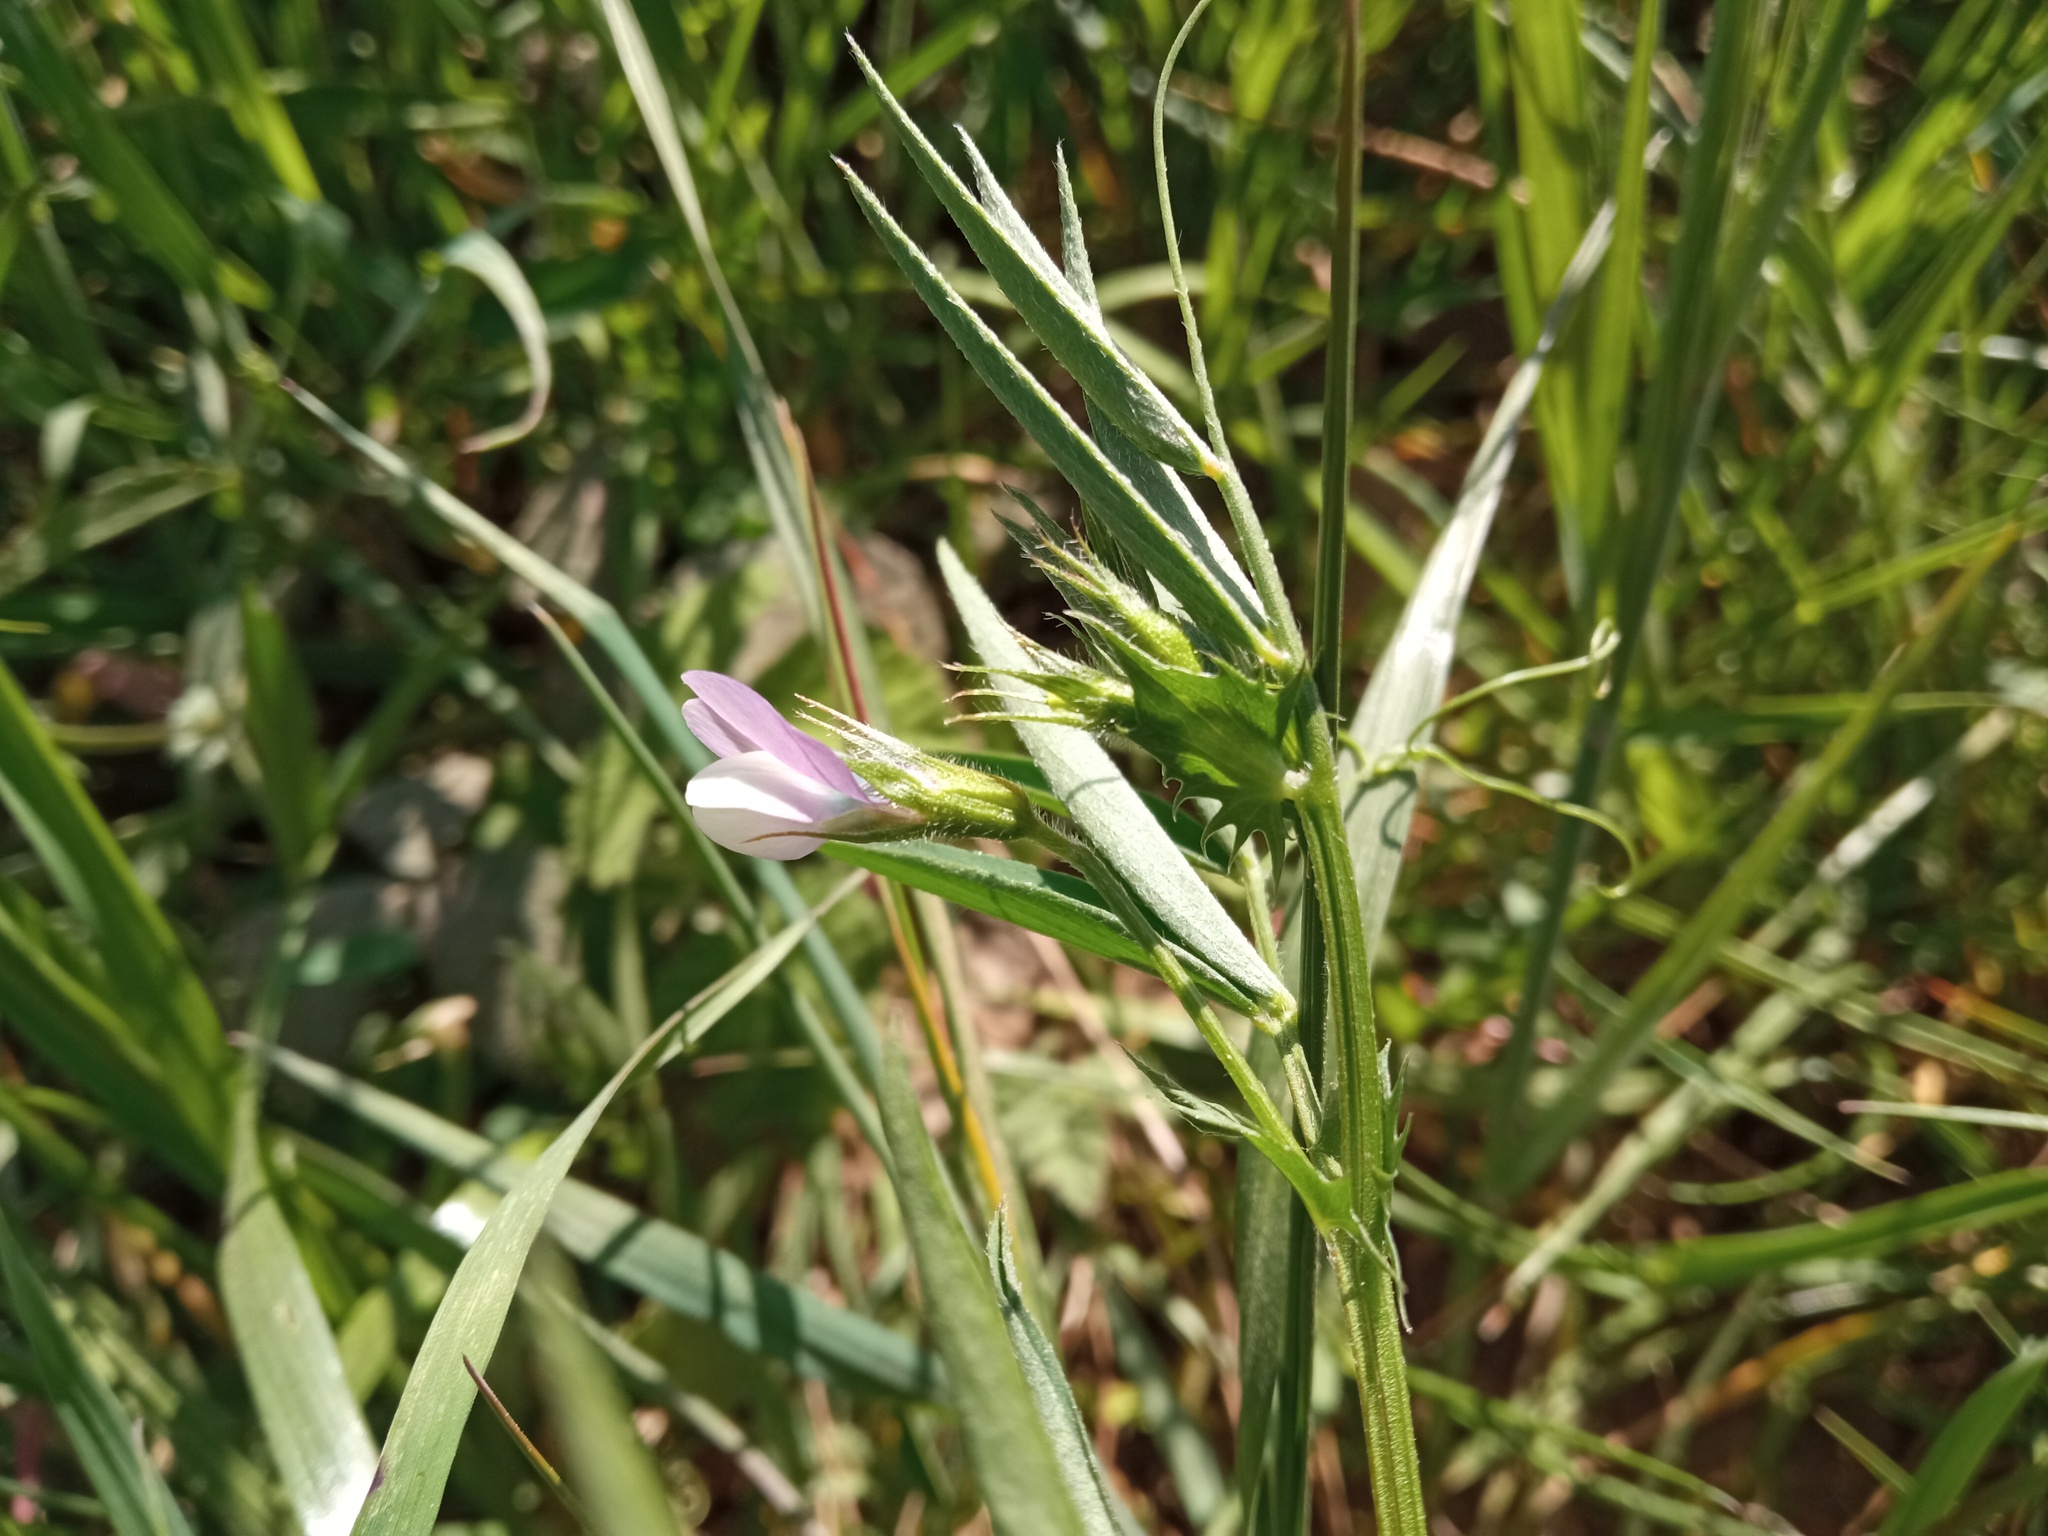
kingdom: Plantae
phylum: Tracheophyta
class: Magnoliopsida
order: Fabales
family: Fabaceae
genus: Vicia
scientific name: Vicia bithynica
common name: Bithynian vetch
